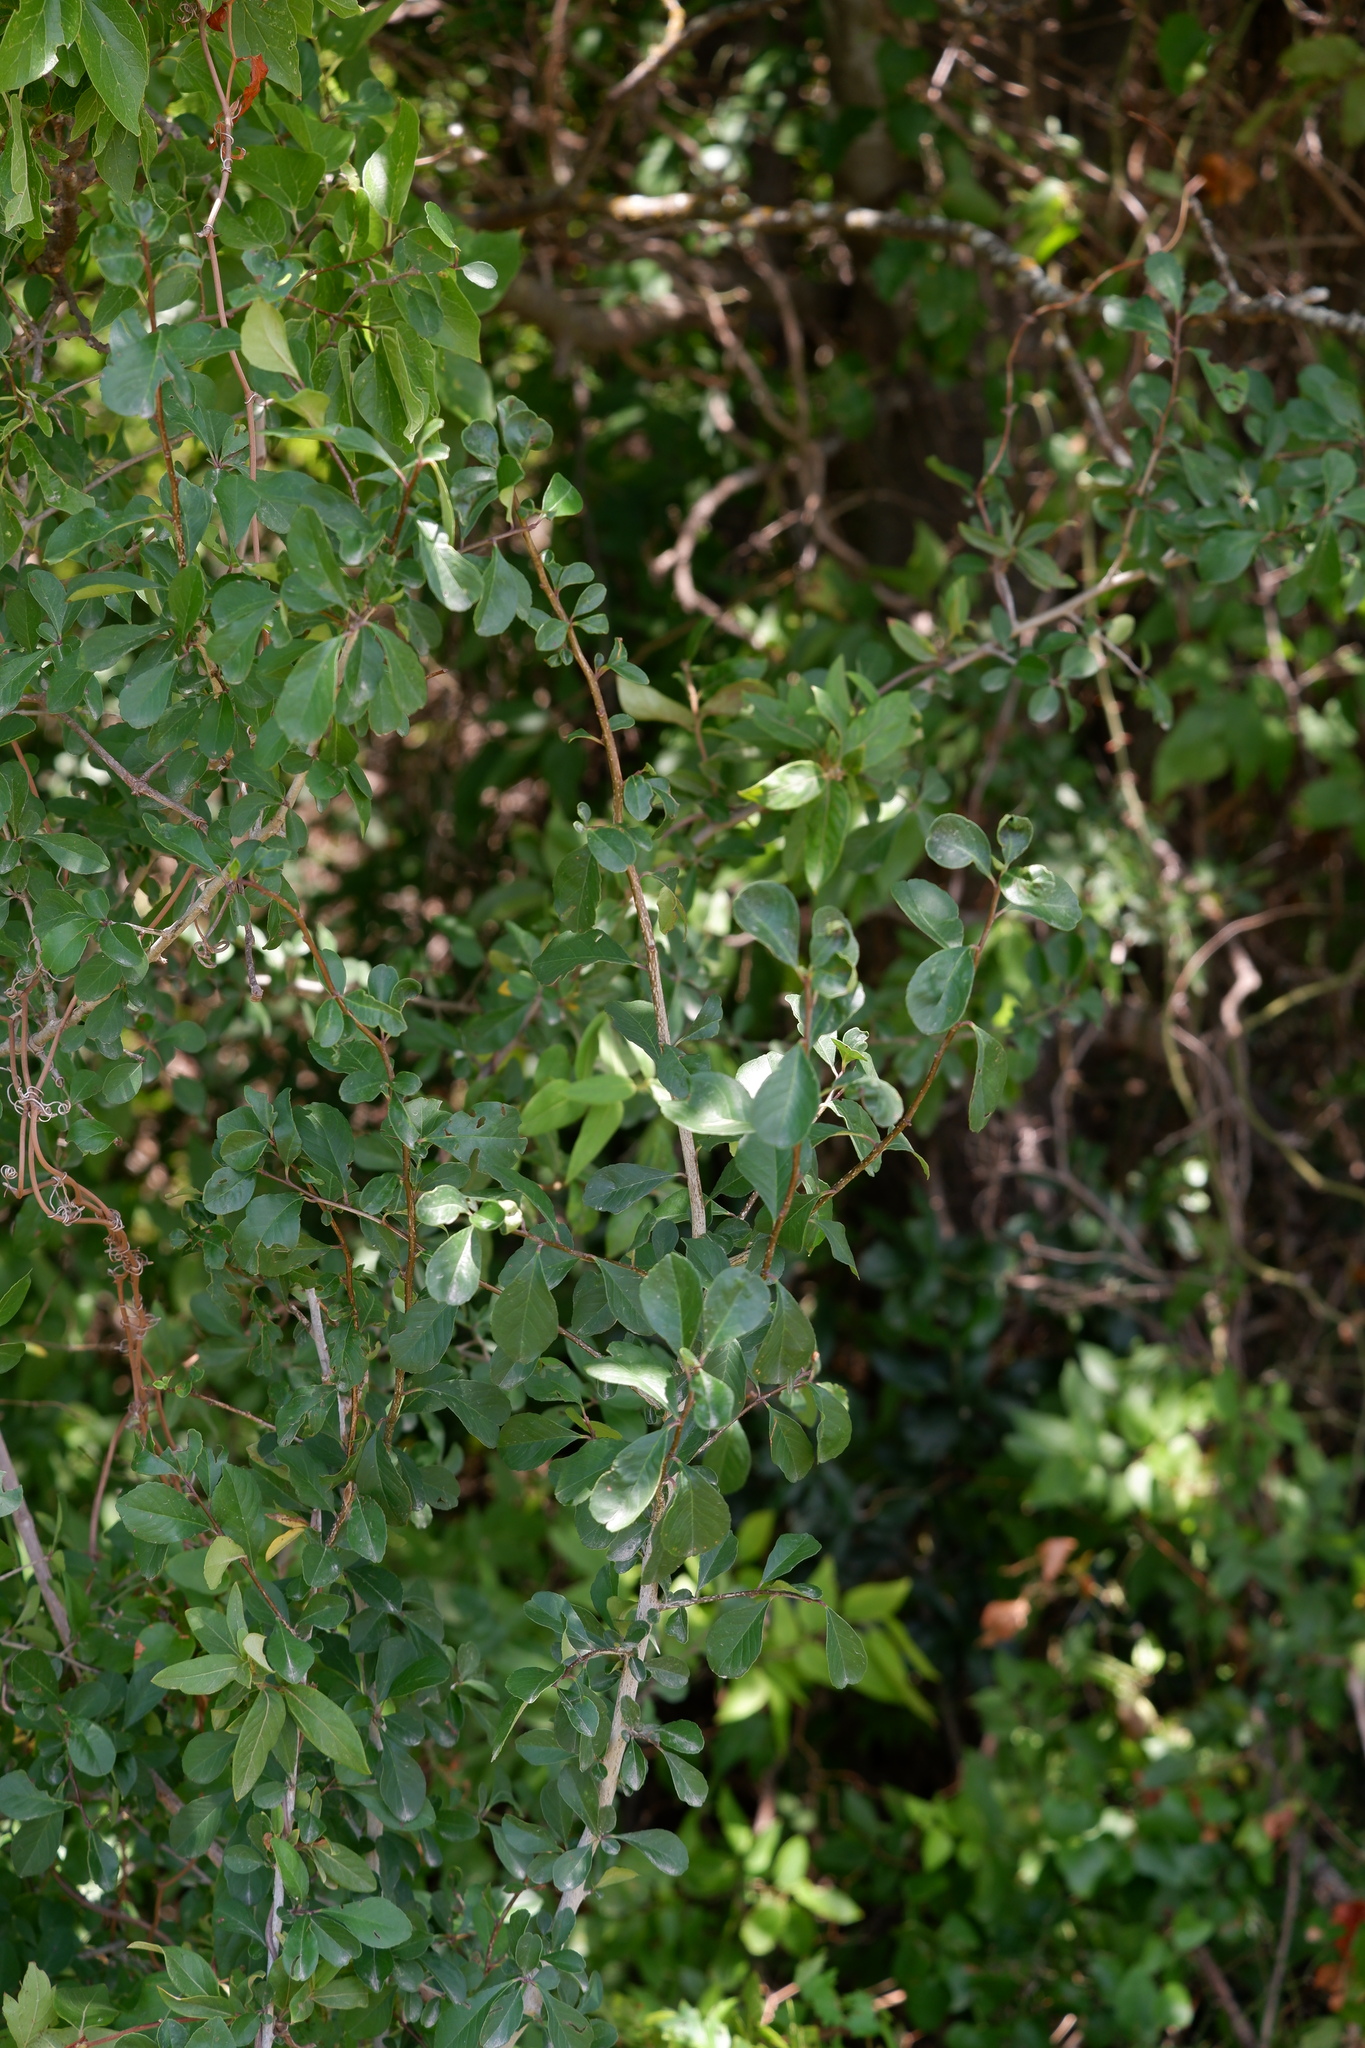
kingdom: Plantae
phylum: Tracheophyta
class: Magnoliopsida
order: Aquifoliales
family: Aquifoliaceae
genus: Ilex
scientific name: Ilex decidua
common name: Possum-haw
